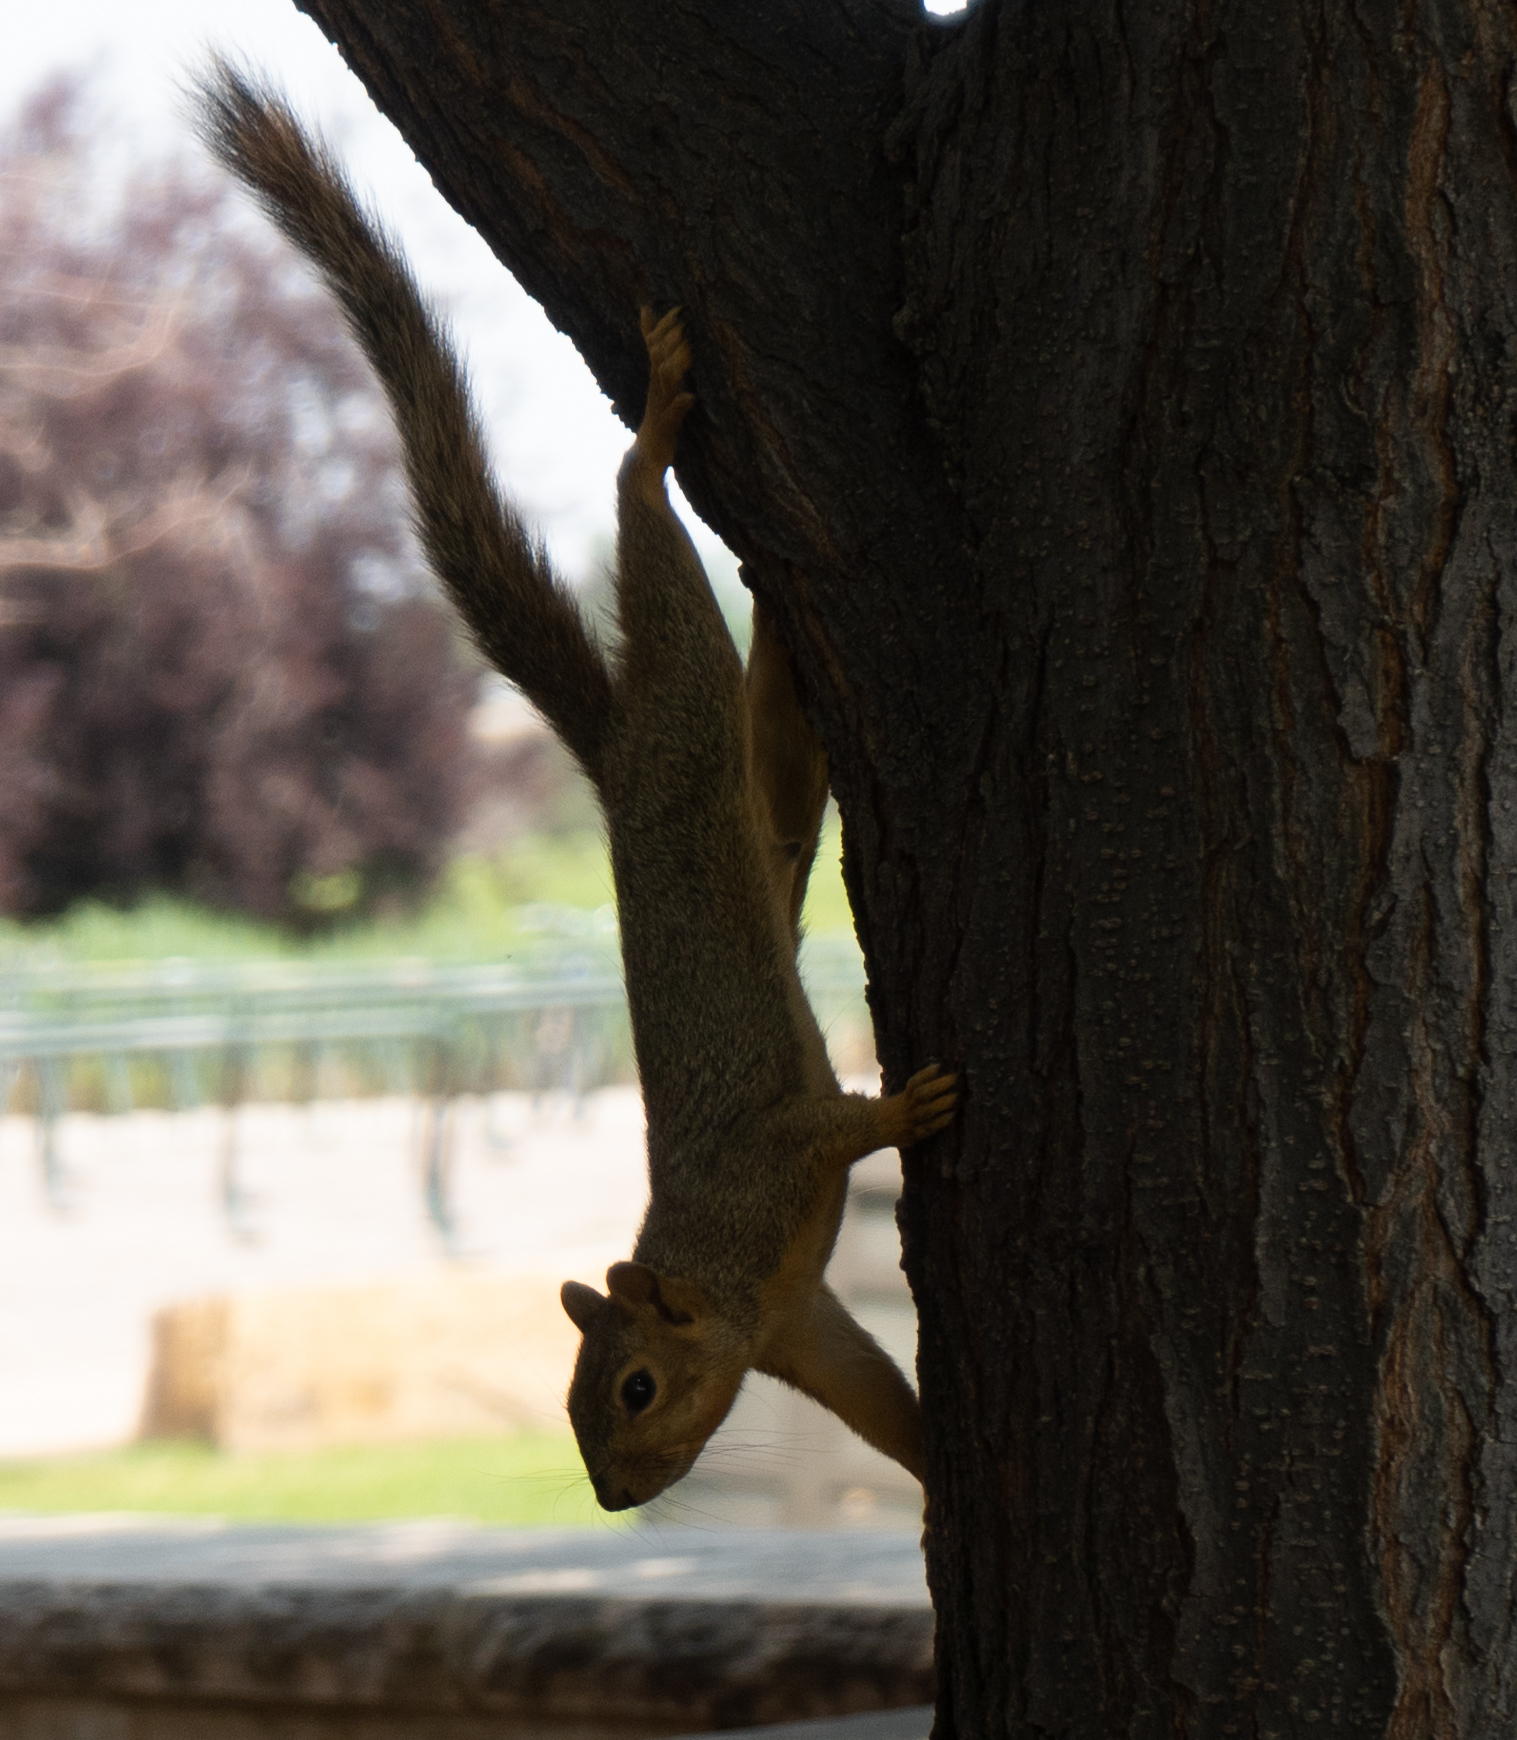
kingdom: Animalia
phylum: Chordata
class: Mammalia
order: Rodentia
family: Sciuridae
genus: Sciurus
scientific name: Sciurus niger
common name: Fox squirrel
